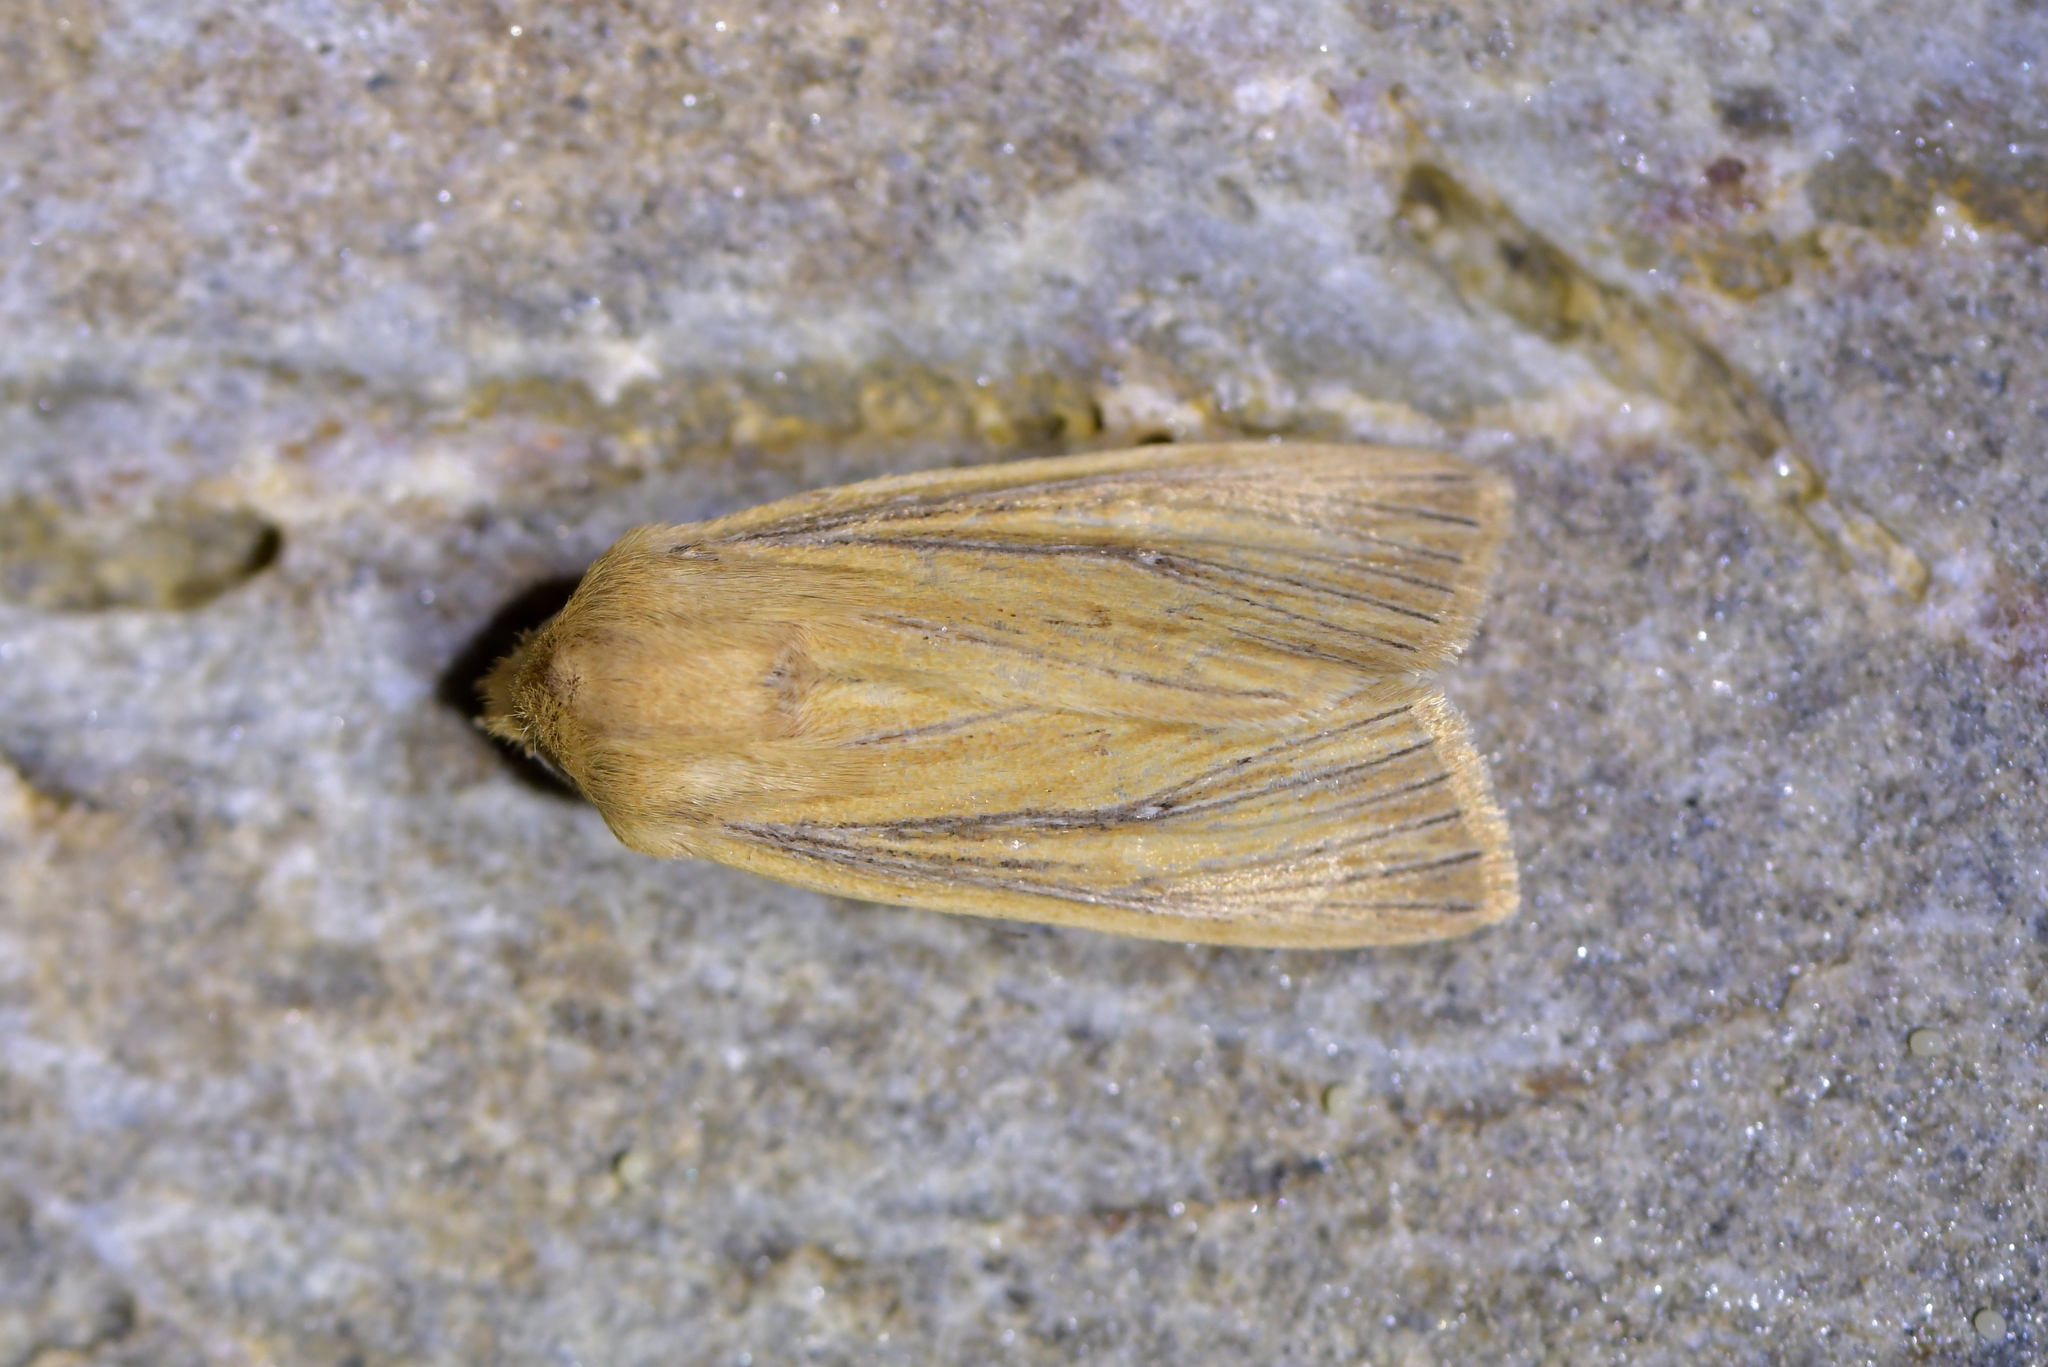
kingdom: Animalia
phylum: Arthropoda
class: Insecta
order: Lepidoptera
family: Noctuidae
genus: Ichneutica
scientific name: Ichneutica arotis
